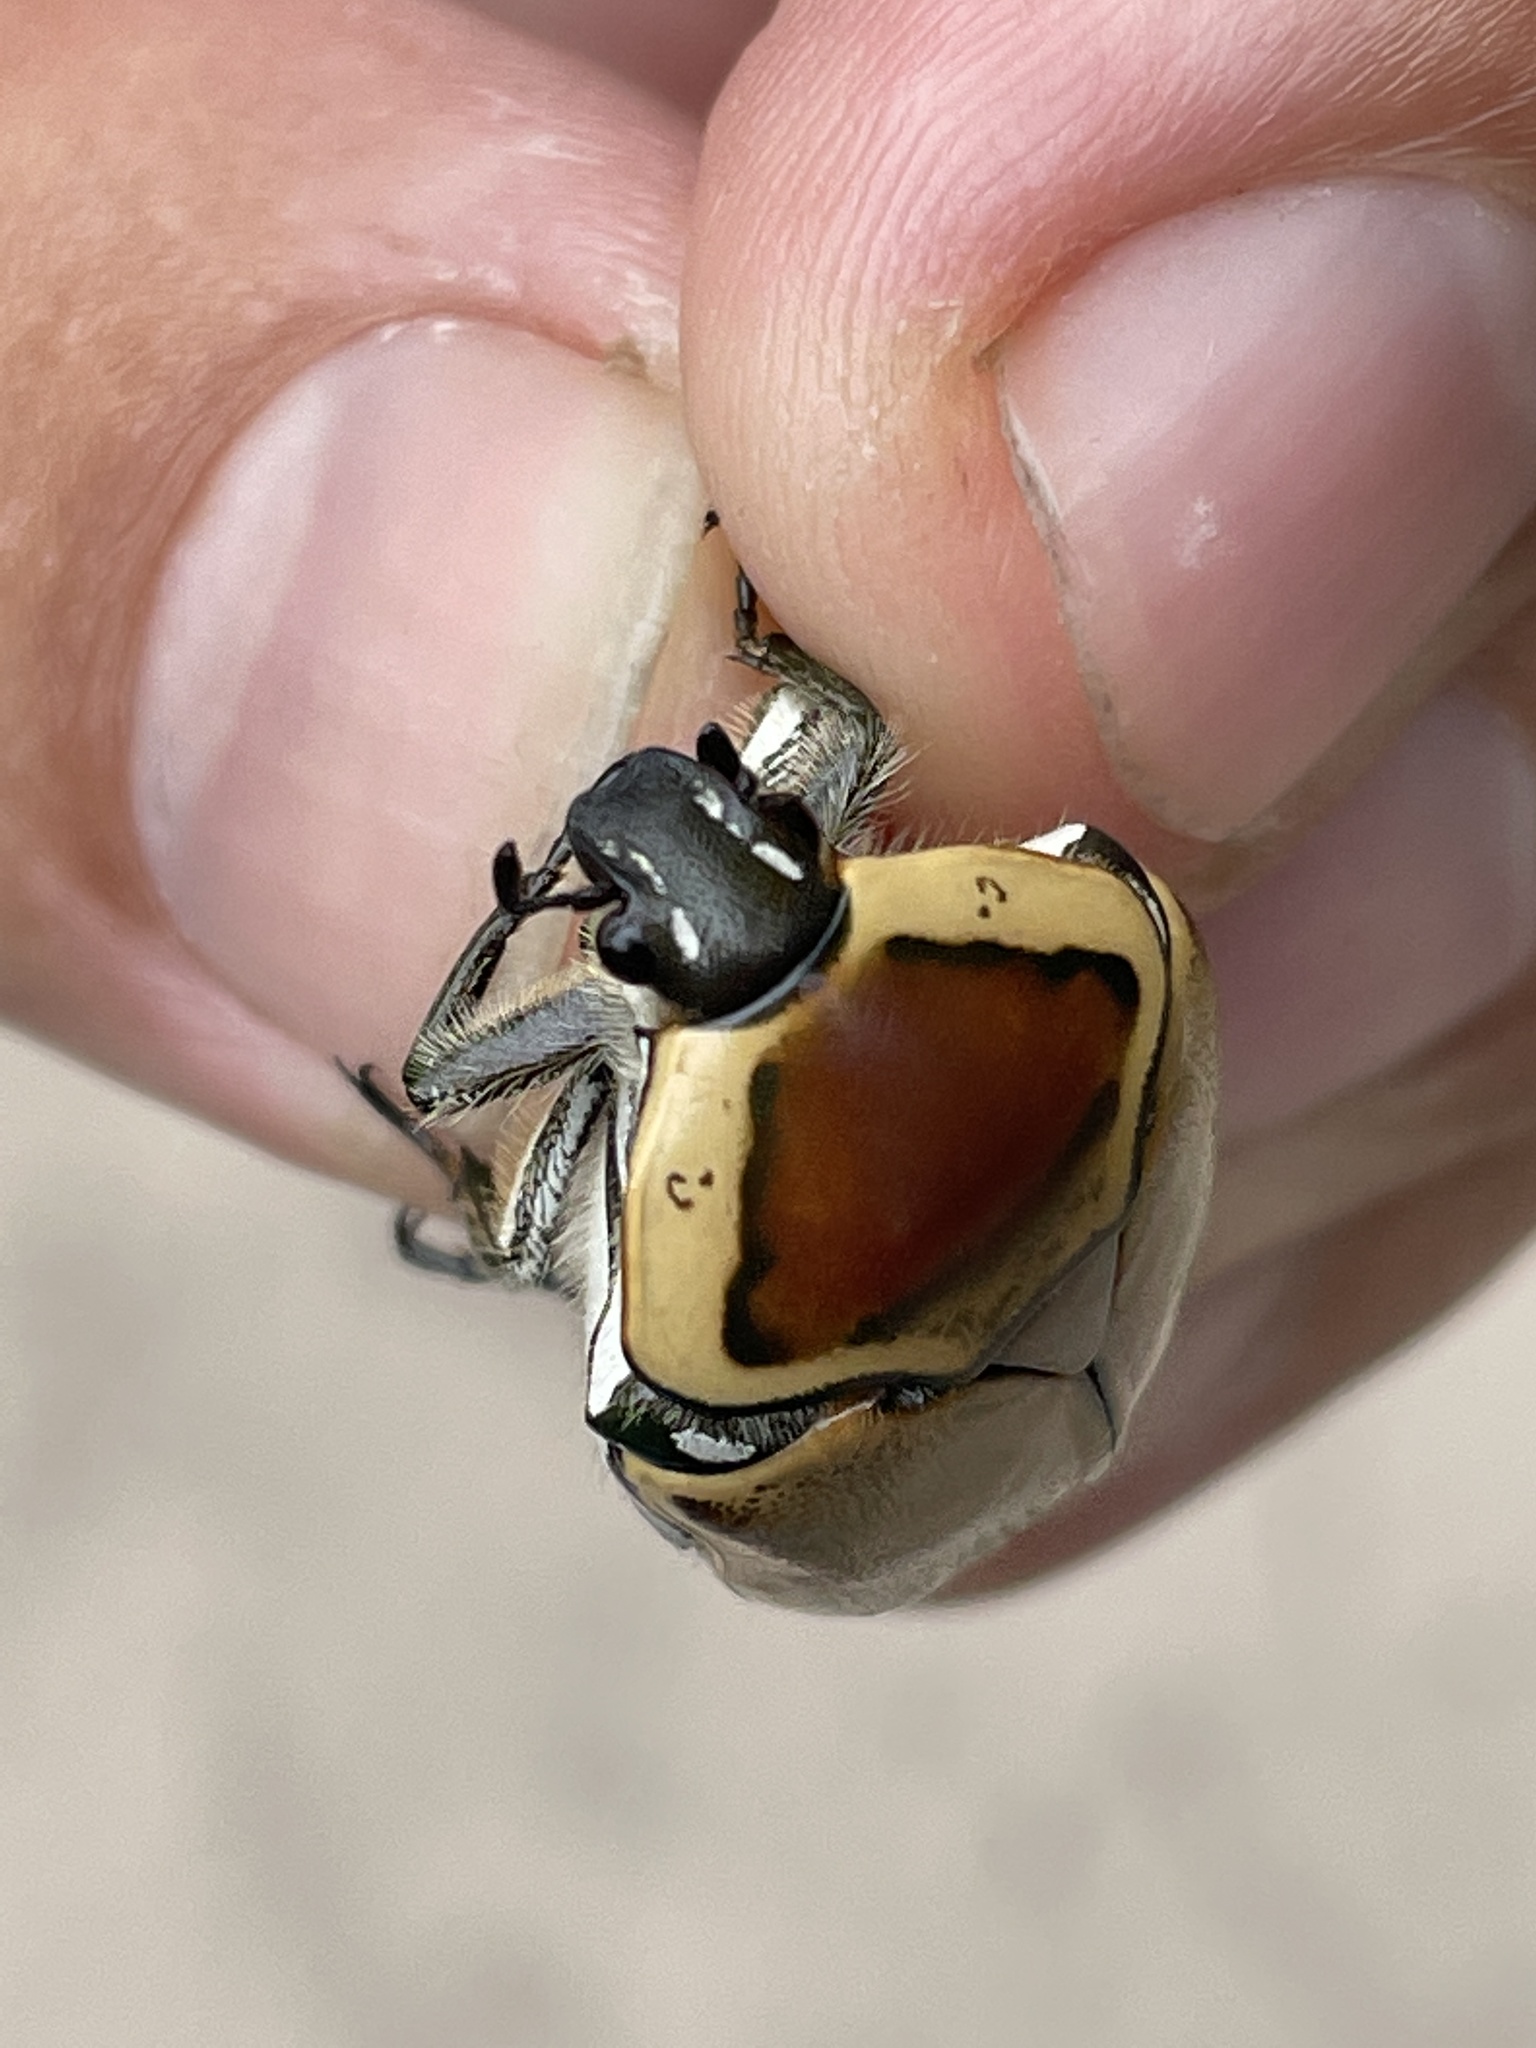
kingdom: Animalia
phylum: Arthropoda
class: Insecta
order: Coleoptera
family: Scarabaeidae
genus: Dischista
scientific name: Dischista cincta
